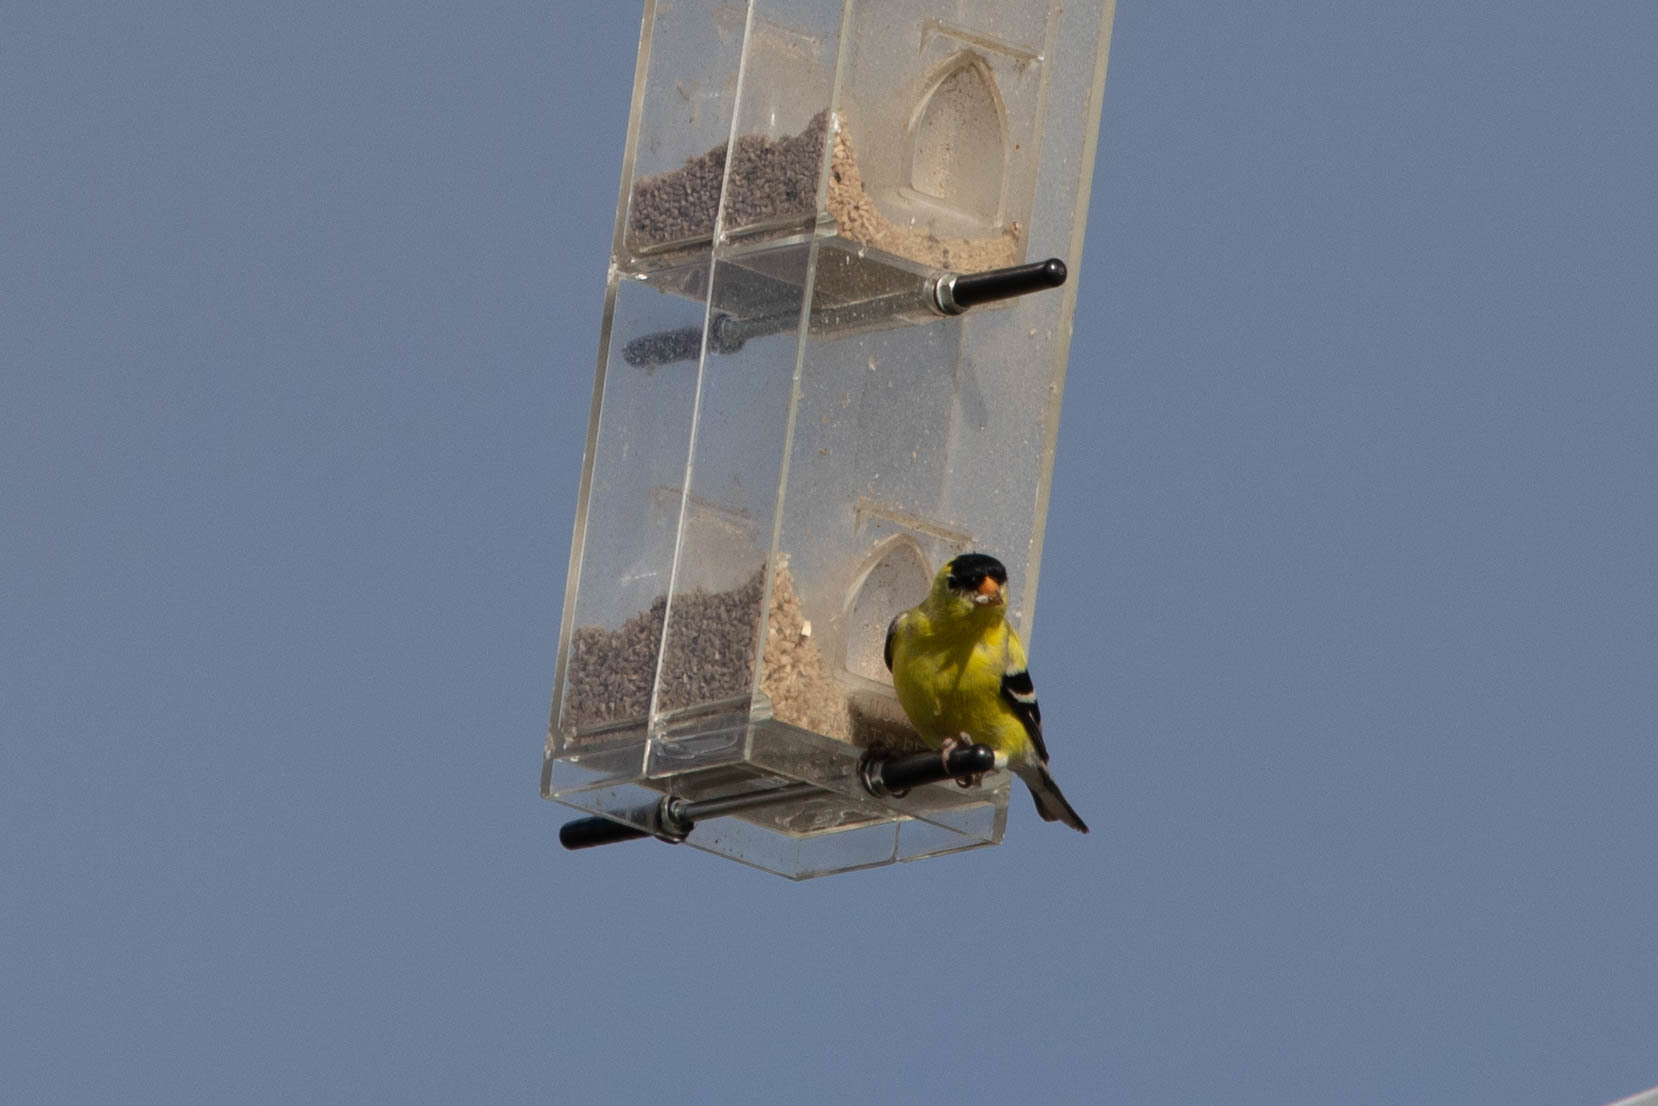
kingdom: Animalia
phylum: Chordata
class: Aves
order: Passeriformes
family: Fringillidae
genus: Spinus
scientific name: Spinus tristis
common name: American goldfinch
